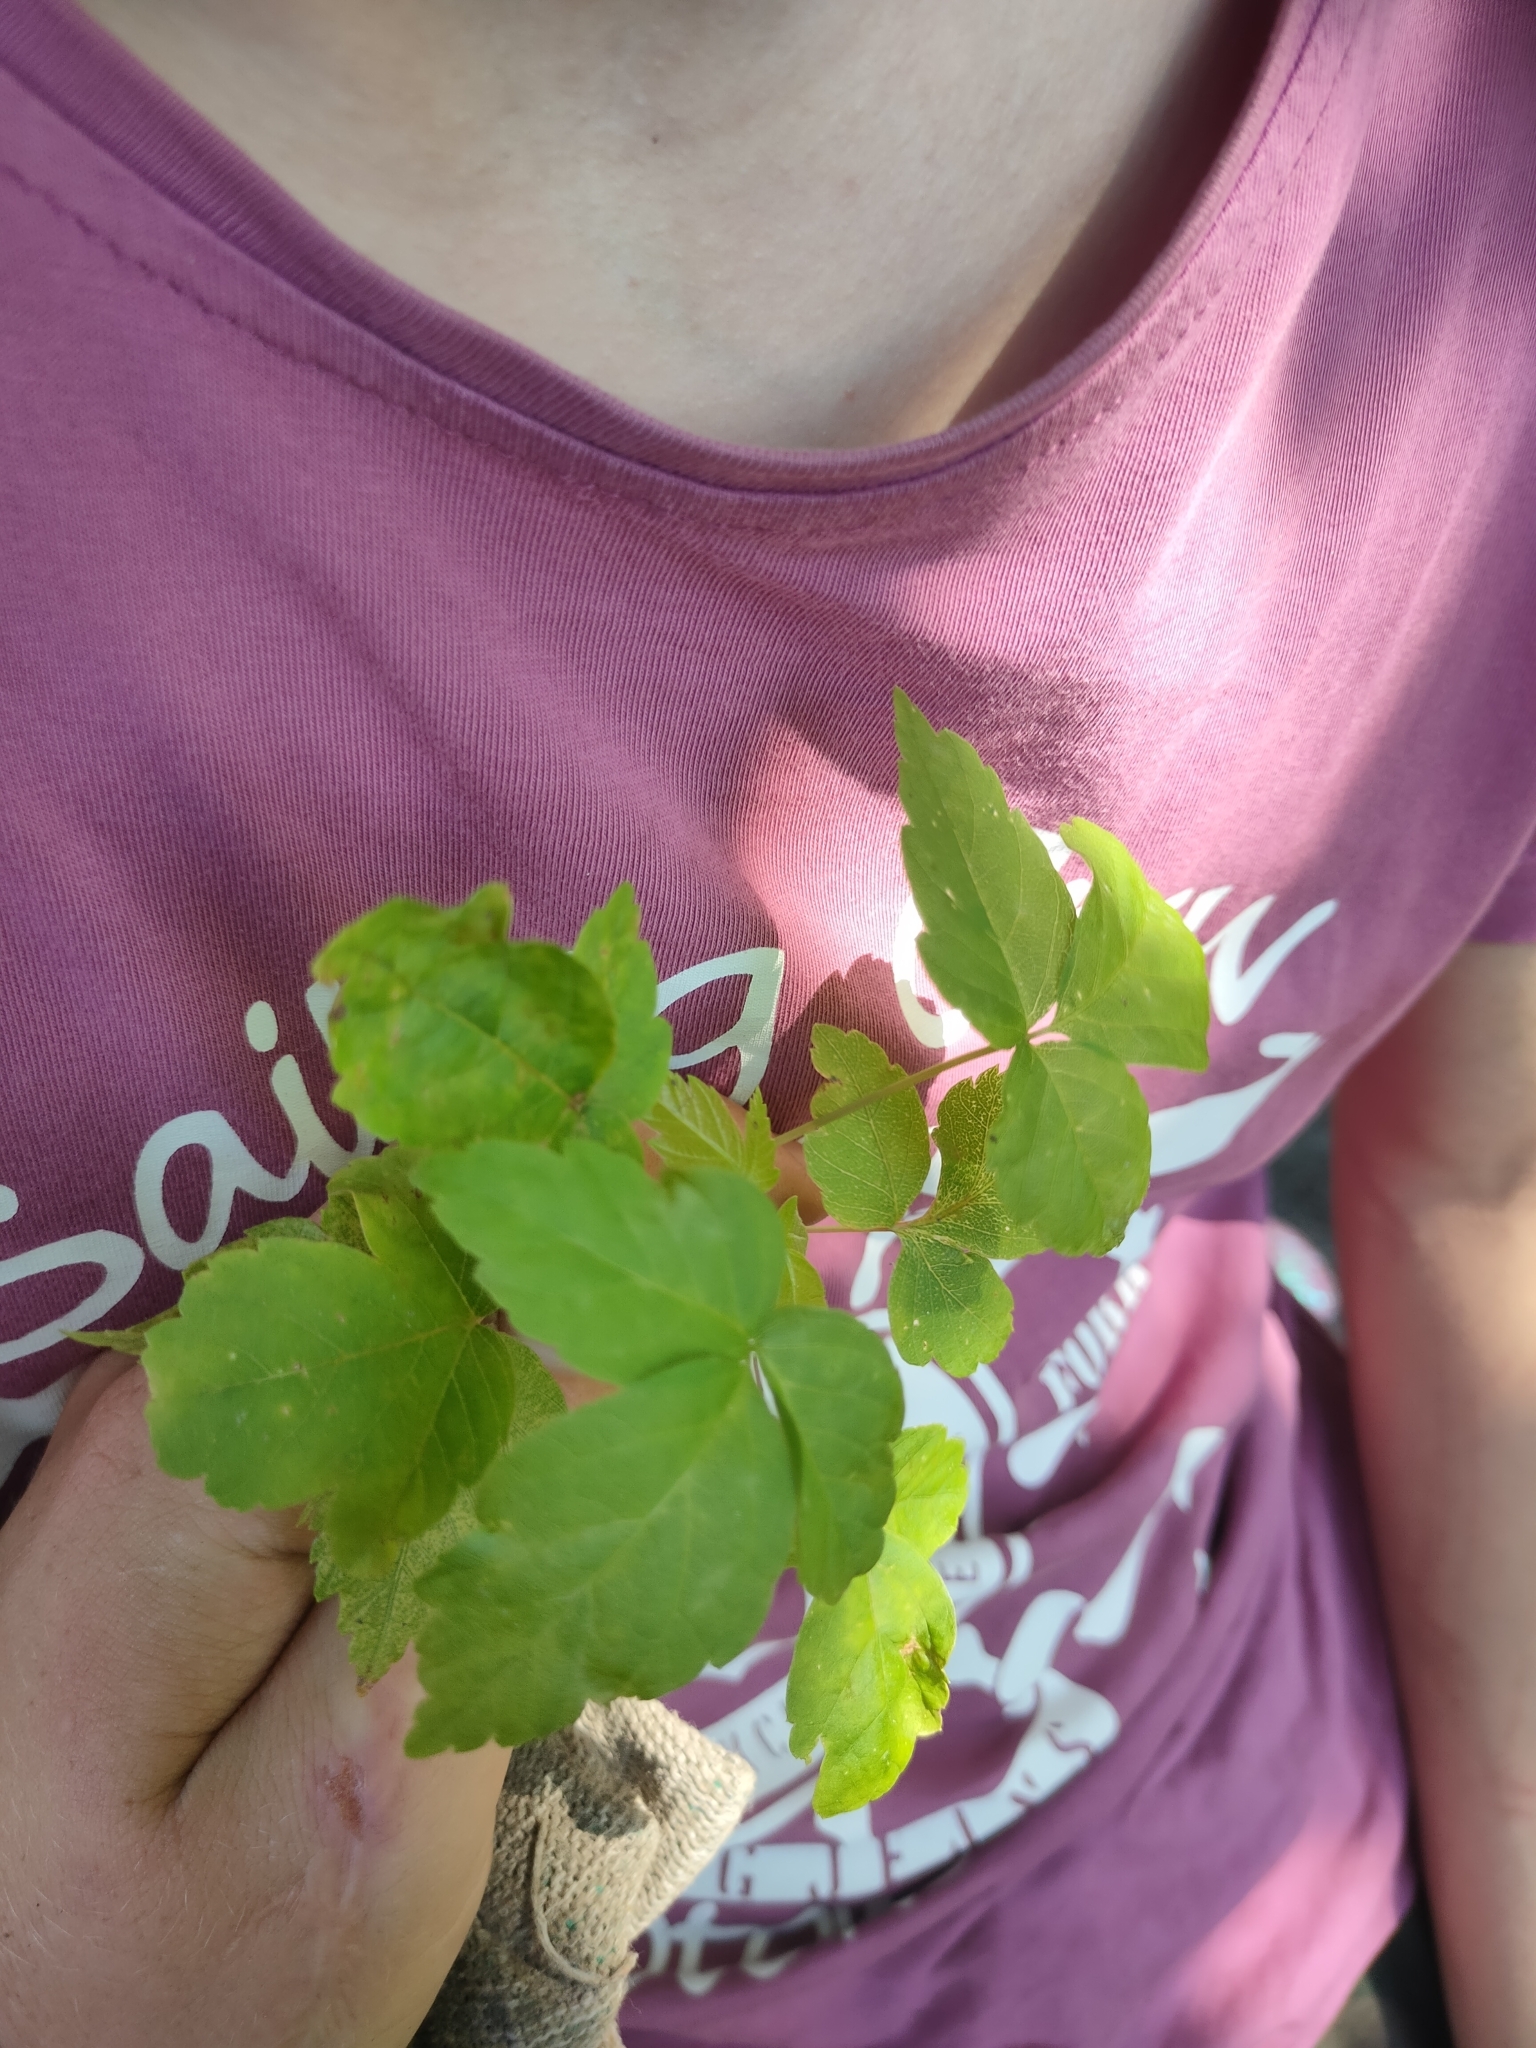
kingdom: Plantae
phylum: Tracheophyta
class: Magnoliopsida
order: Sapindales
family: Sapindaceae
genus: Acer
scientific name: Acer negundo
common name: Ashleaf maple
